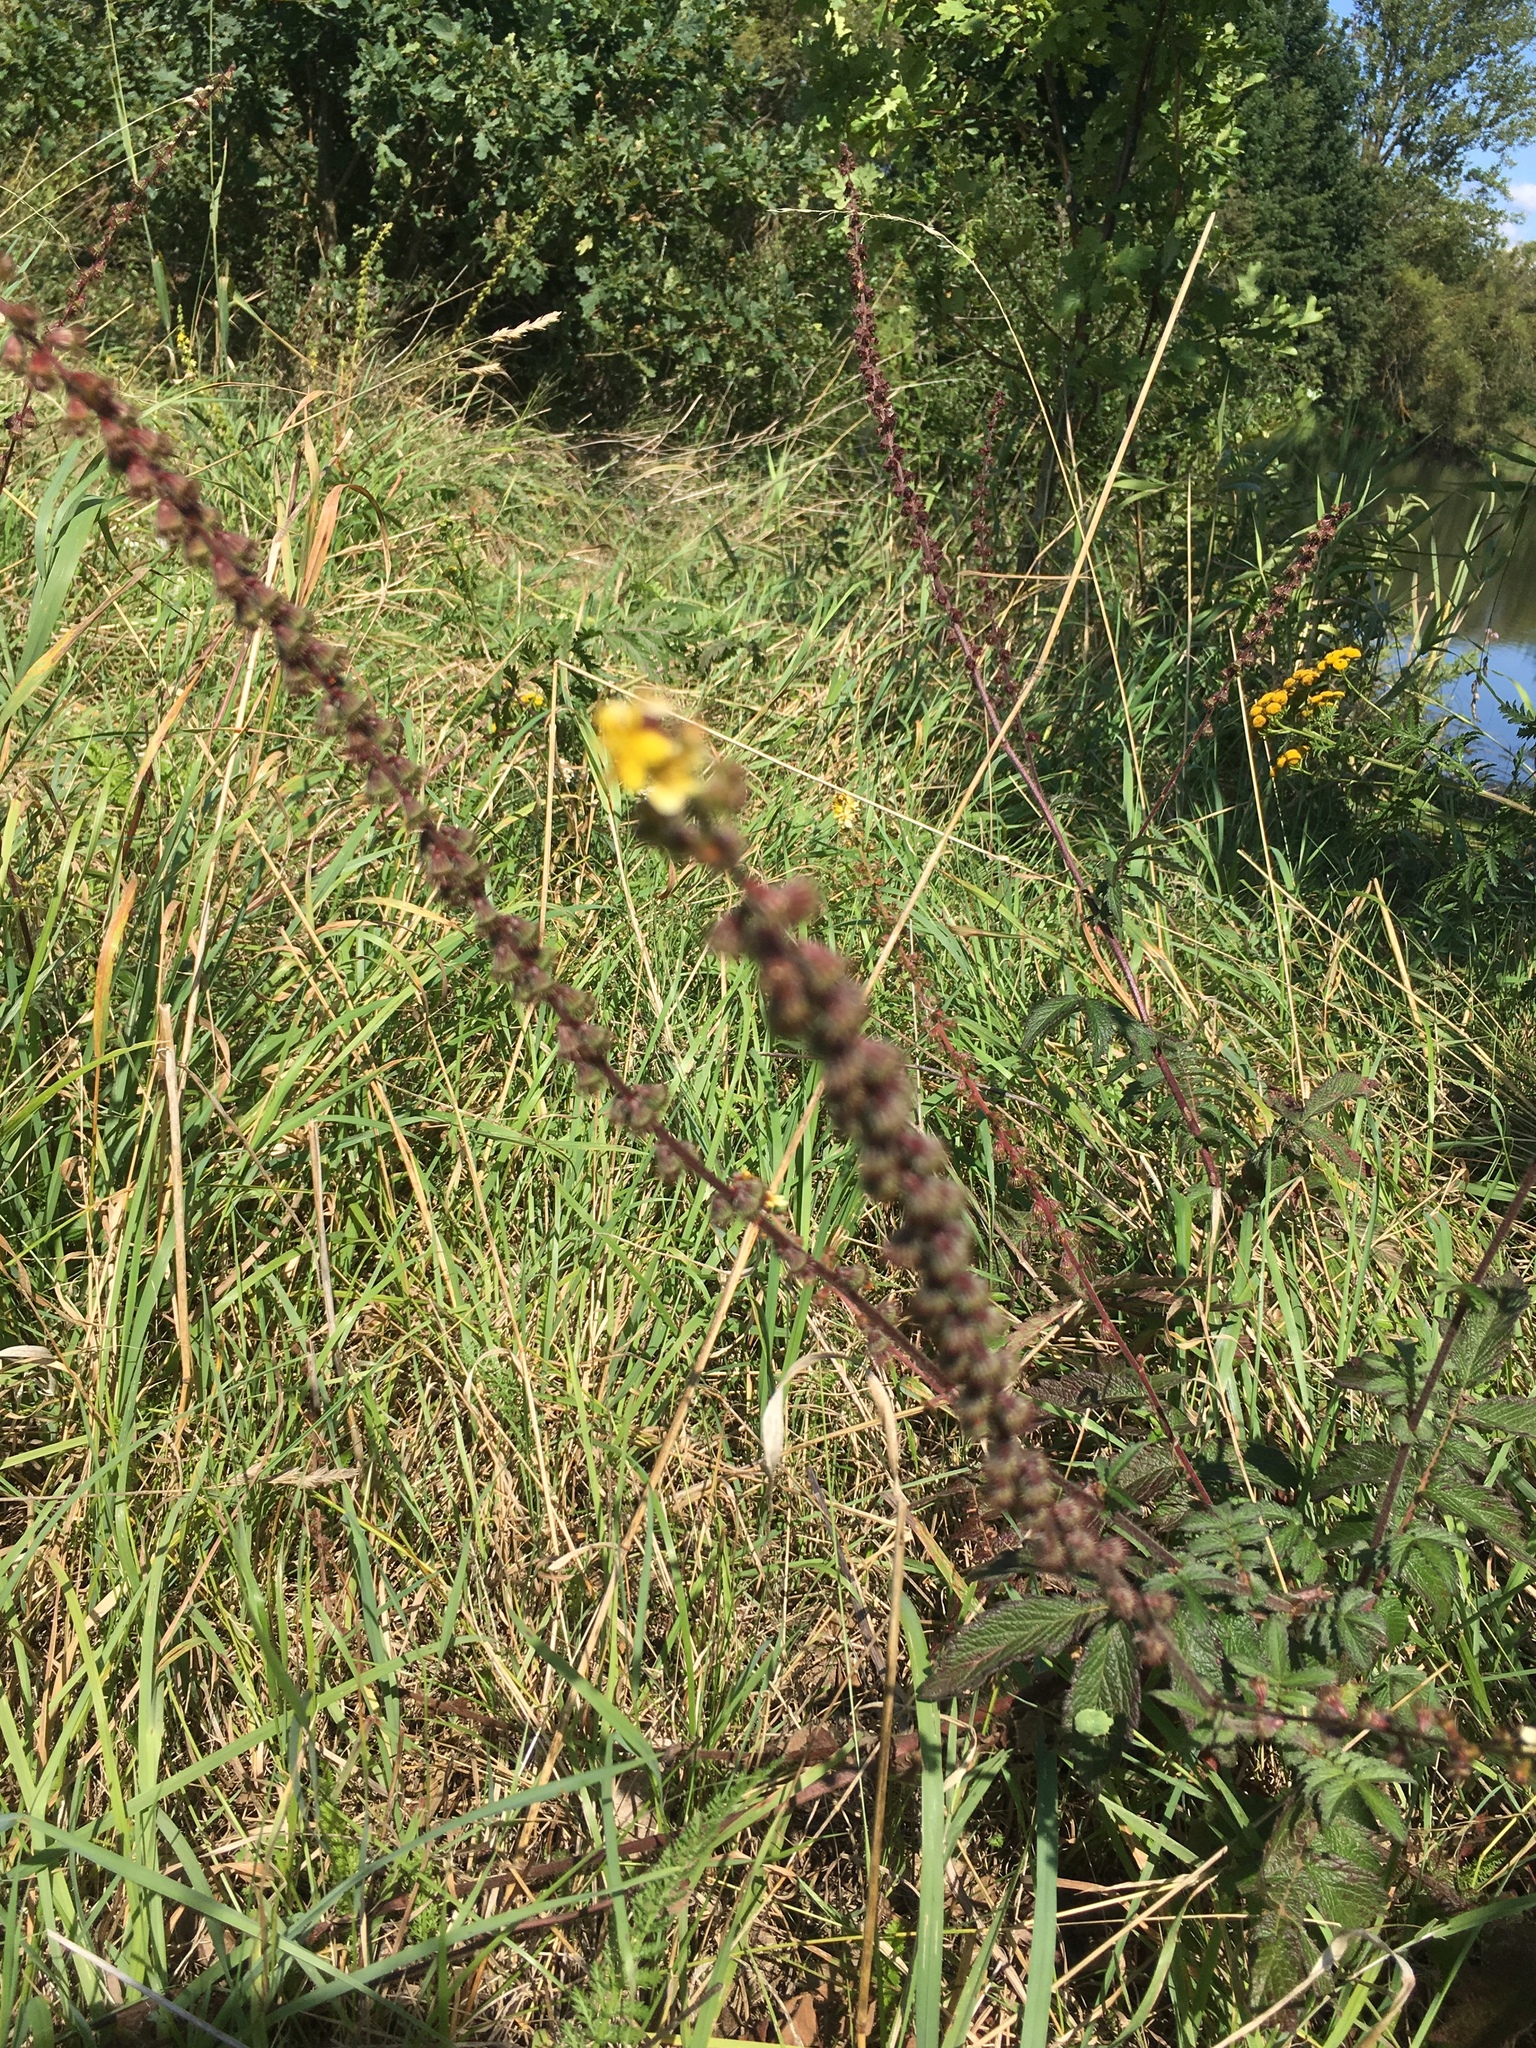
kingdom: Plantae
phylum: Tracheophyta
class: Magnoliopsida
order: Rosales
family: Rosaceae
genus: Agrimonia
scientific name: Agrimonia eupatoria
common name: Agrimony
